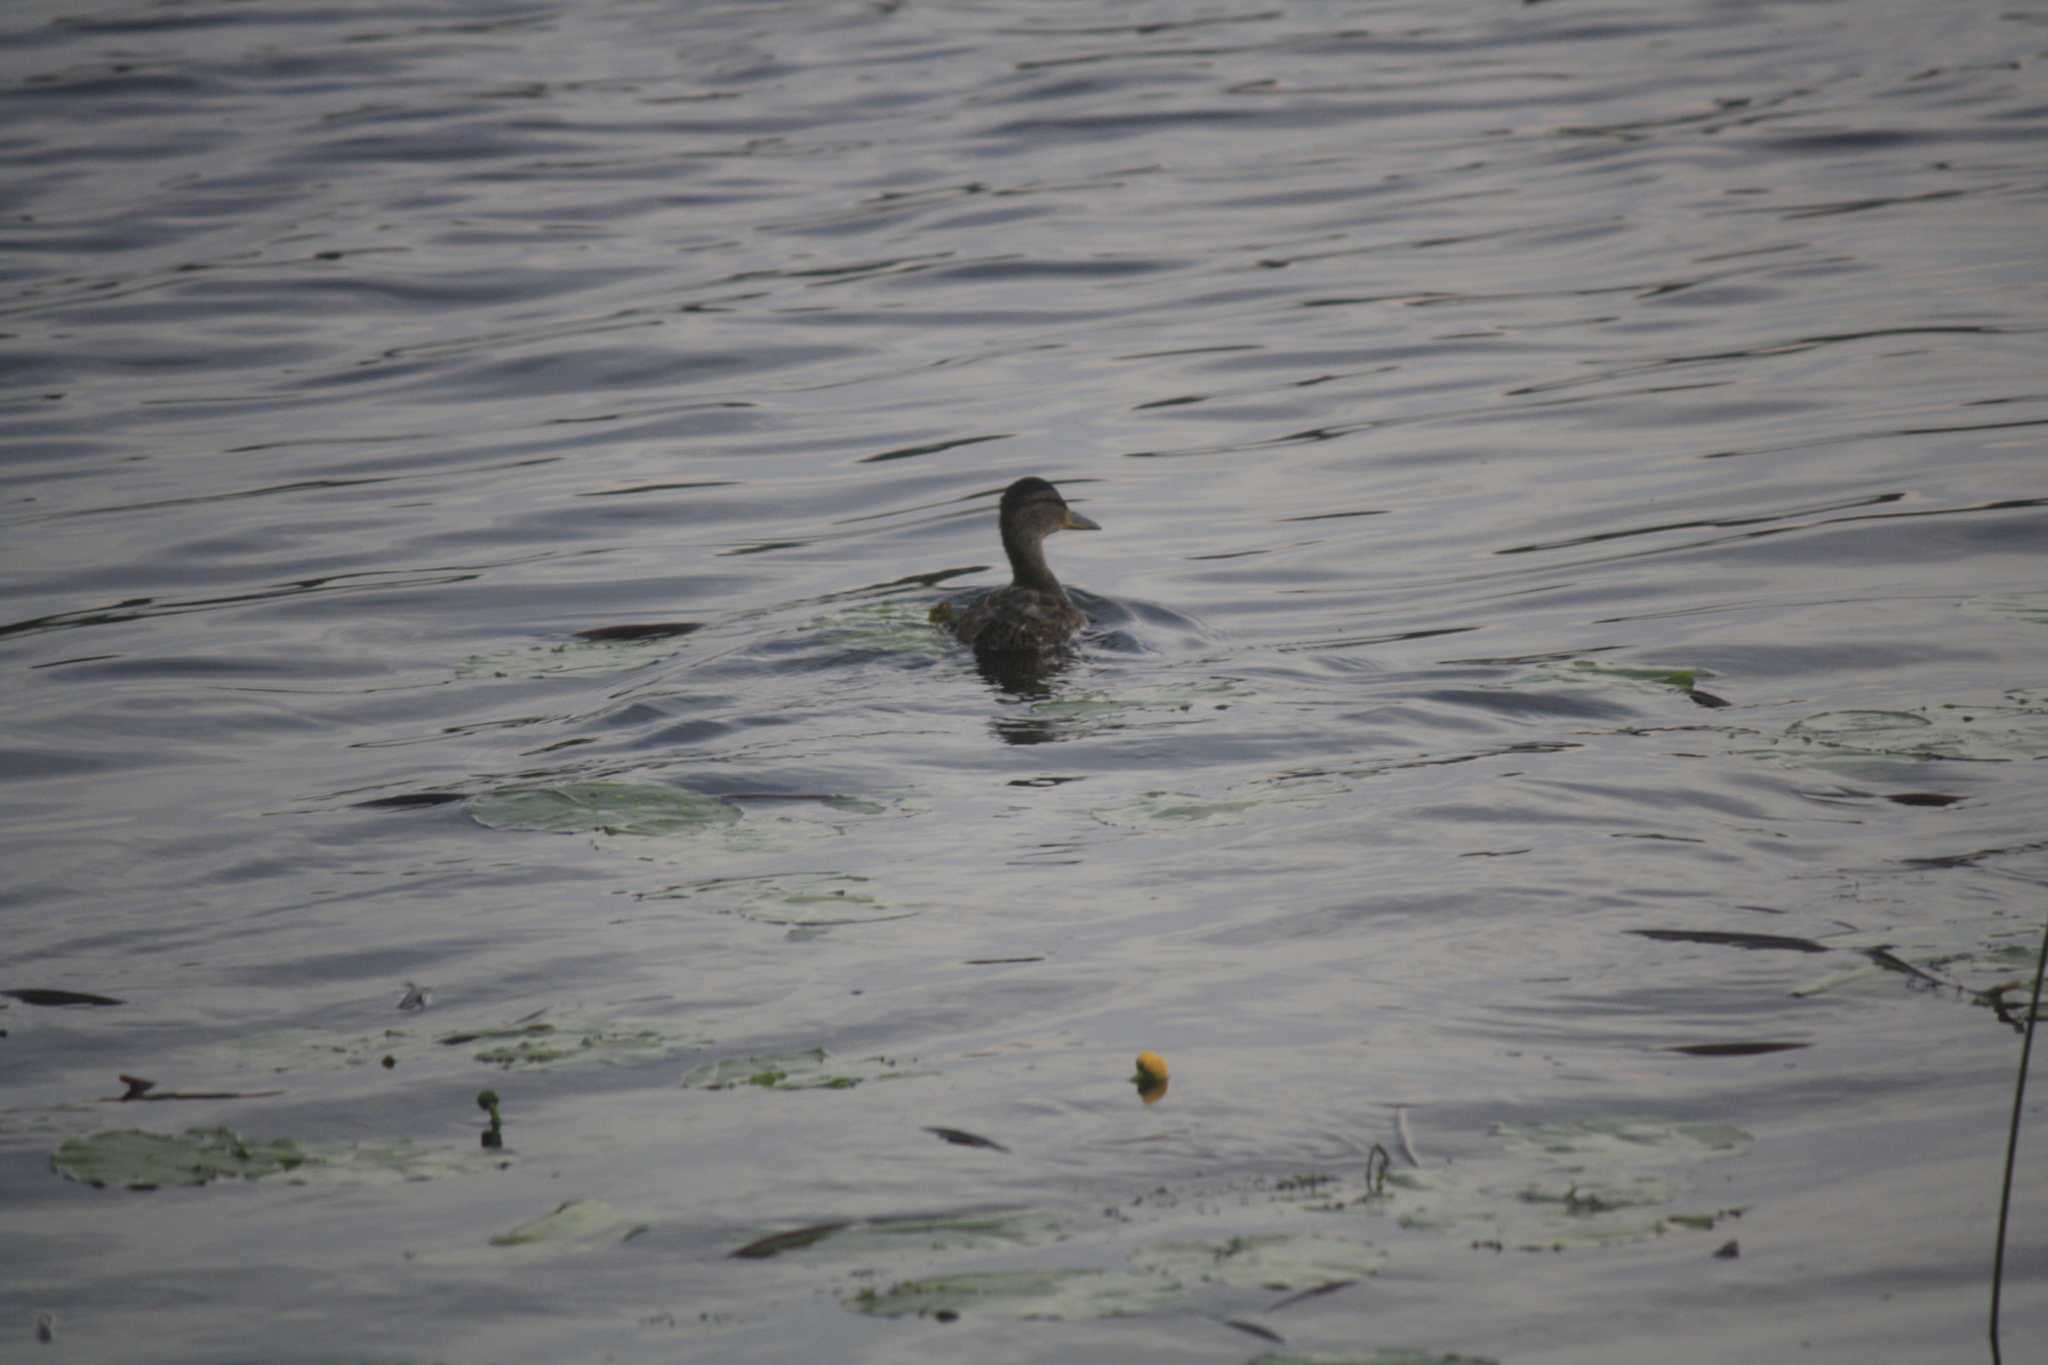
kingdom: Animalia
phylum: Chordata
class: Aves
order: Anseriformes
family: Anatidae
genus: Anas
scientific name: Anas platyrhynchos
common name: Mallard
